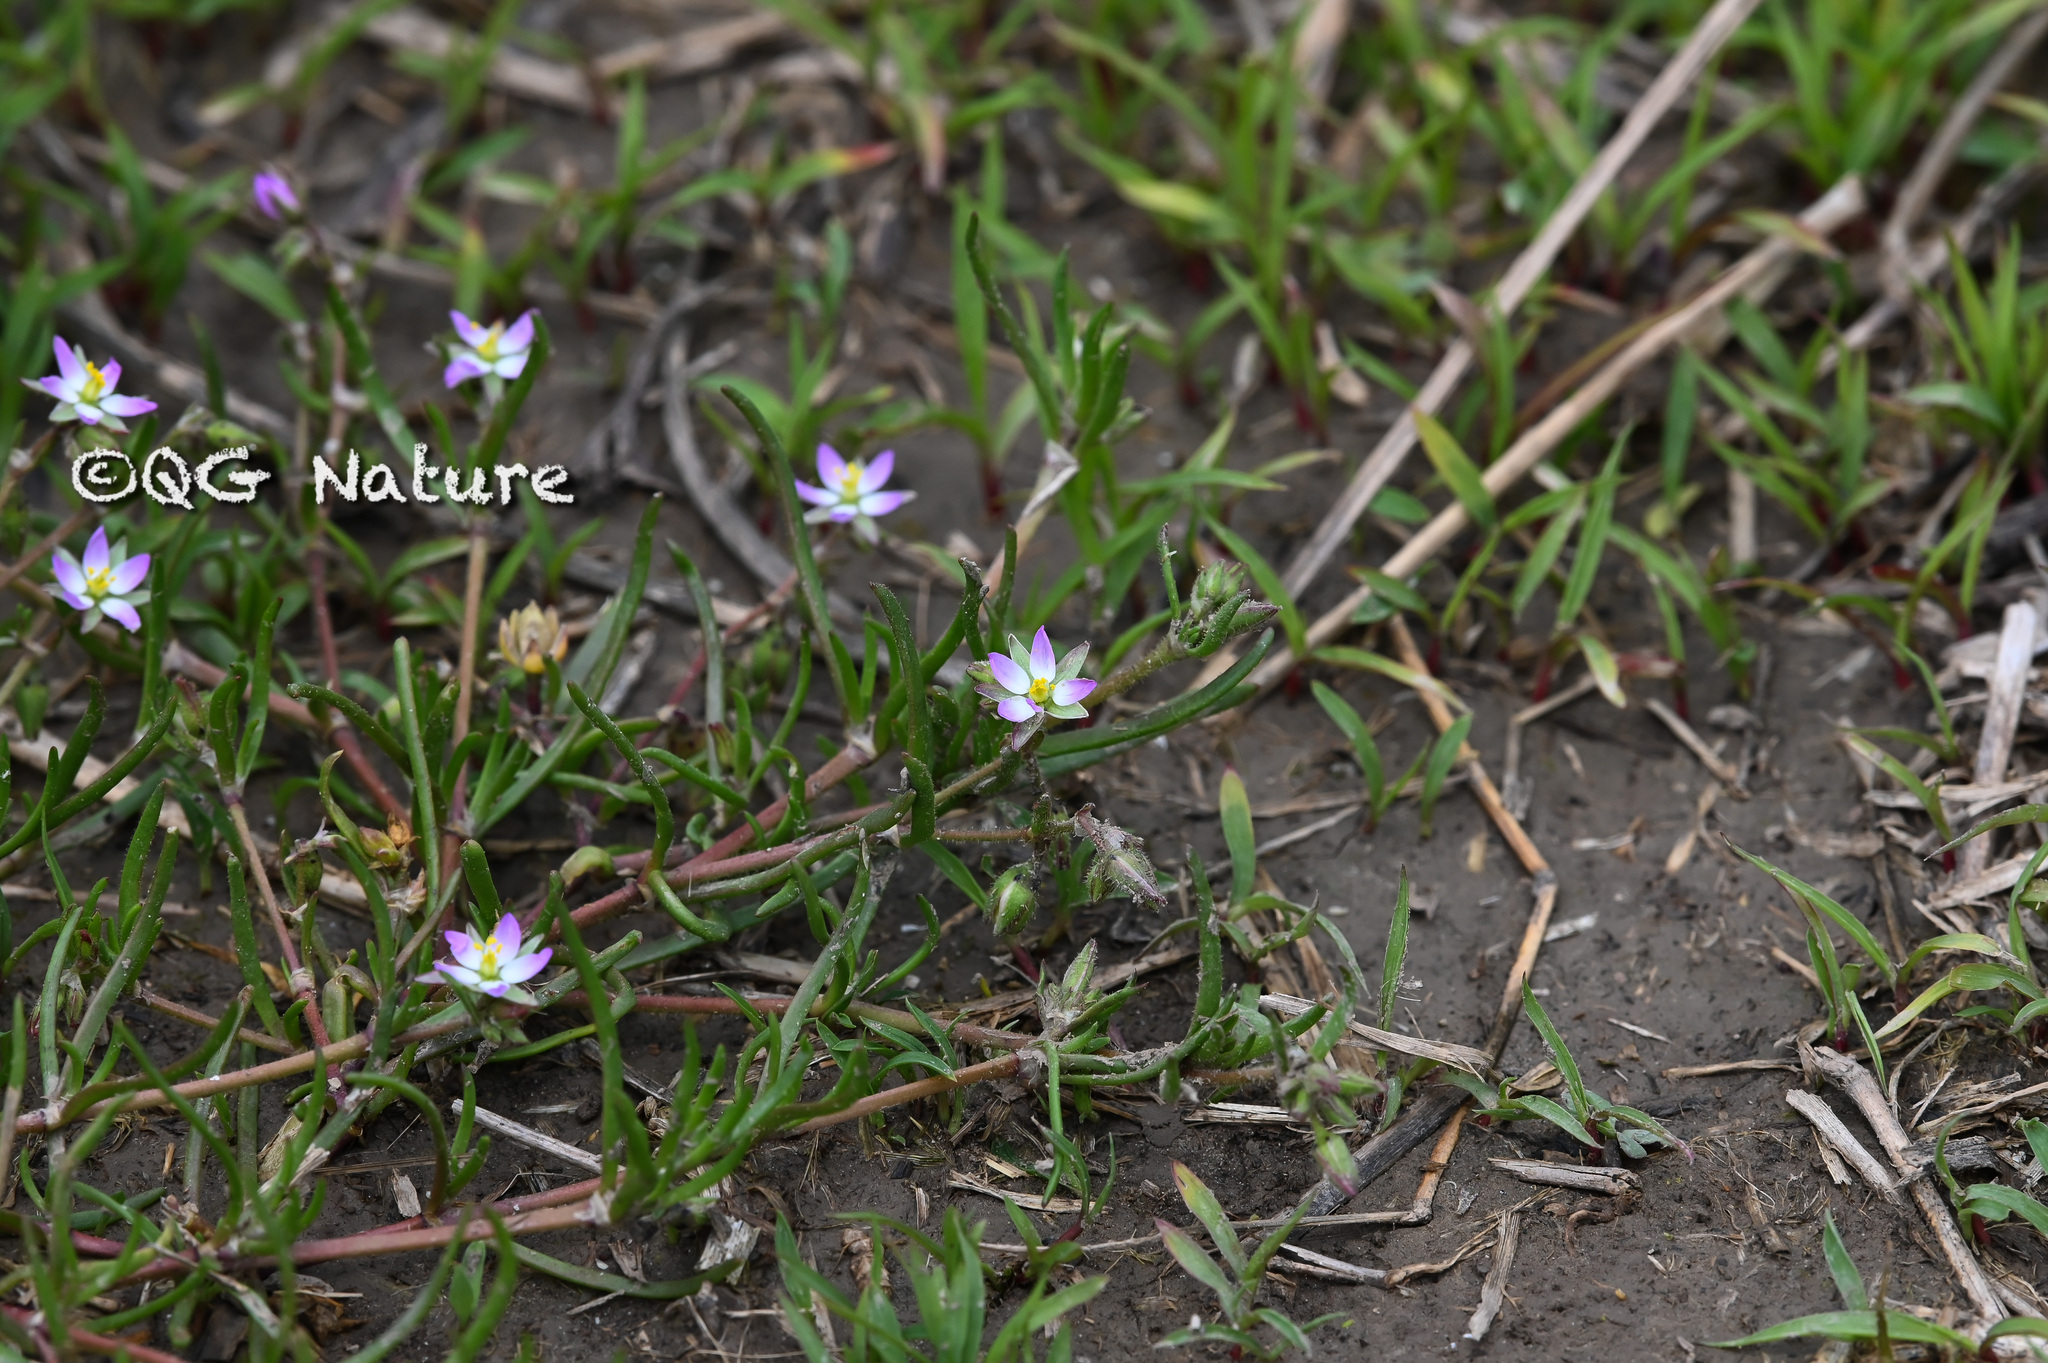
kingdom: Plantae
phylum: Tracheophyta
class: Magnoliopsida
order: Caryophyllales
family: Caryophyllaceae
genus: Spergularia
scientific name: Spergularia marina
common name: Lesser sea-spurrey
